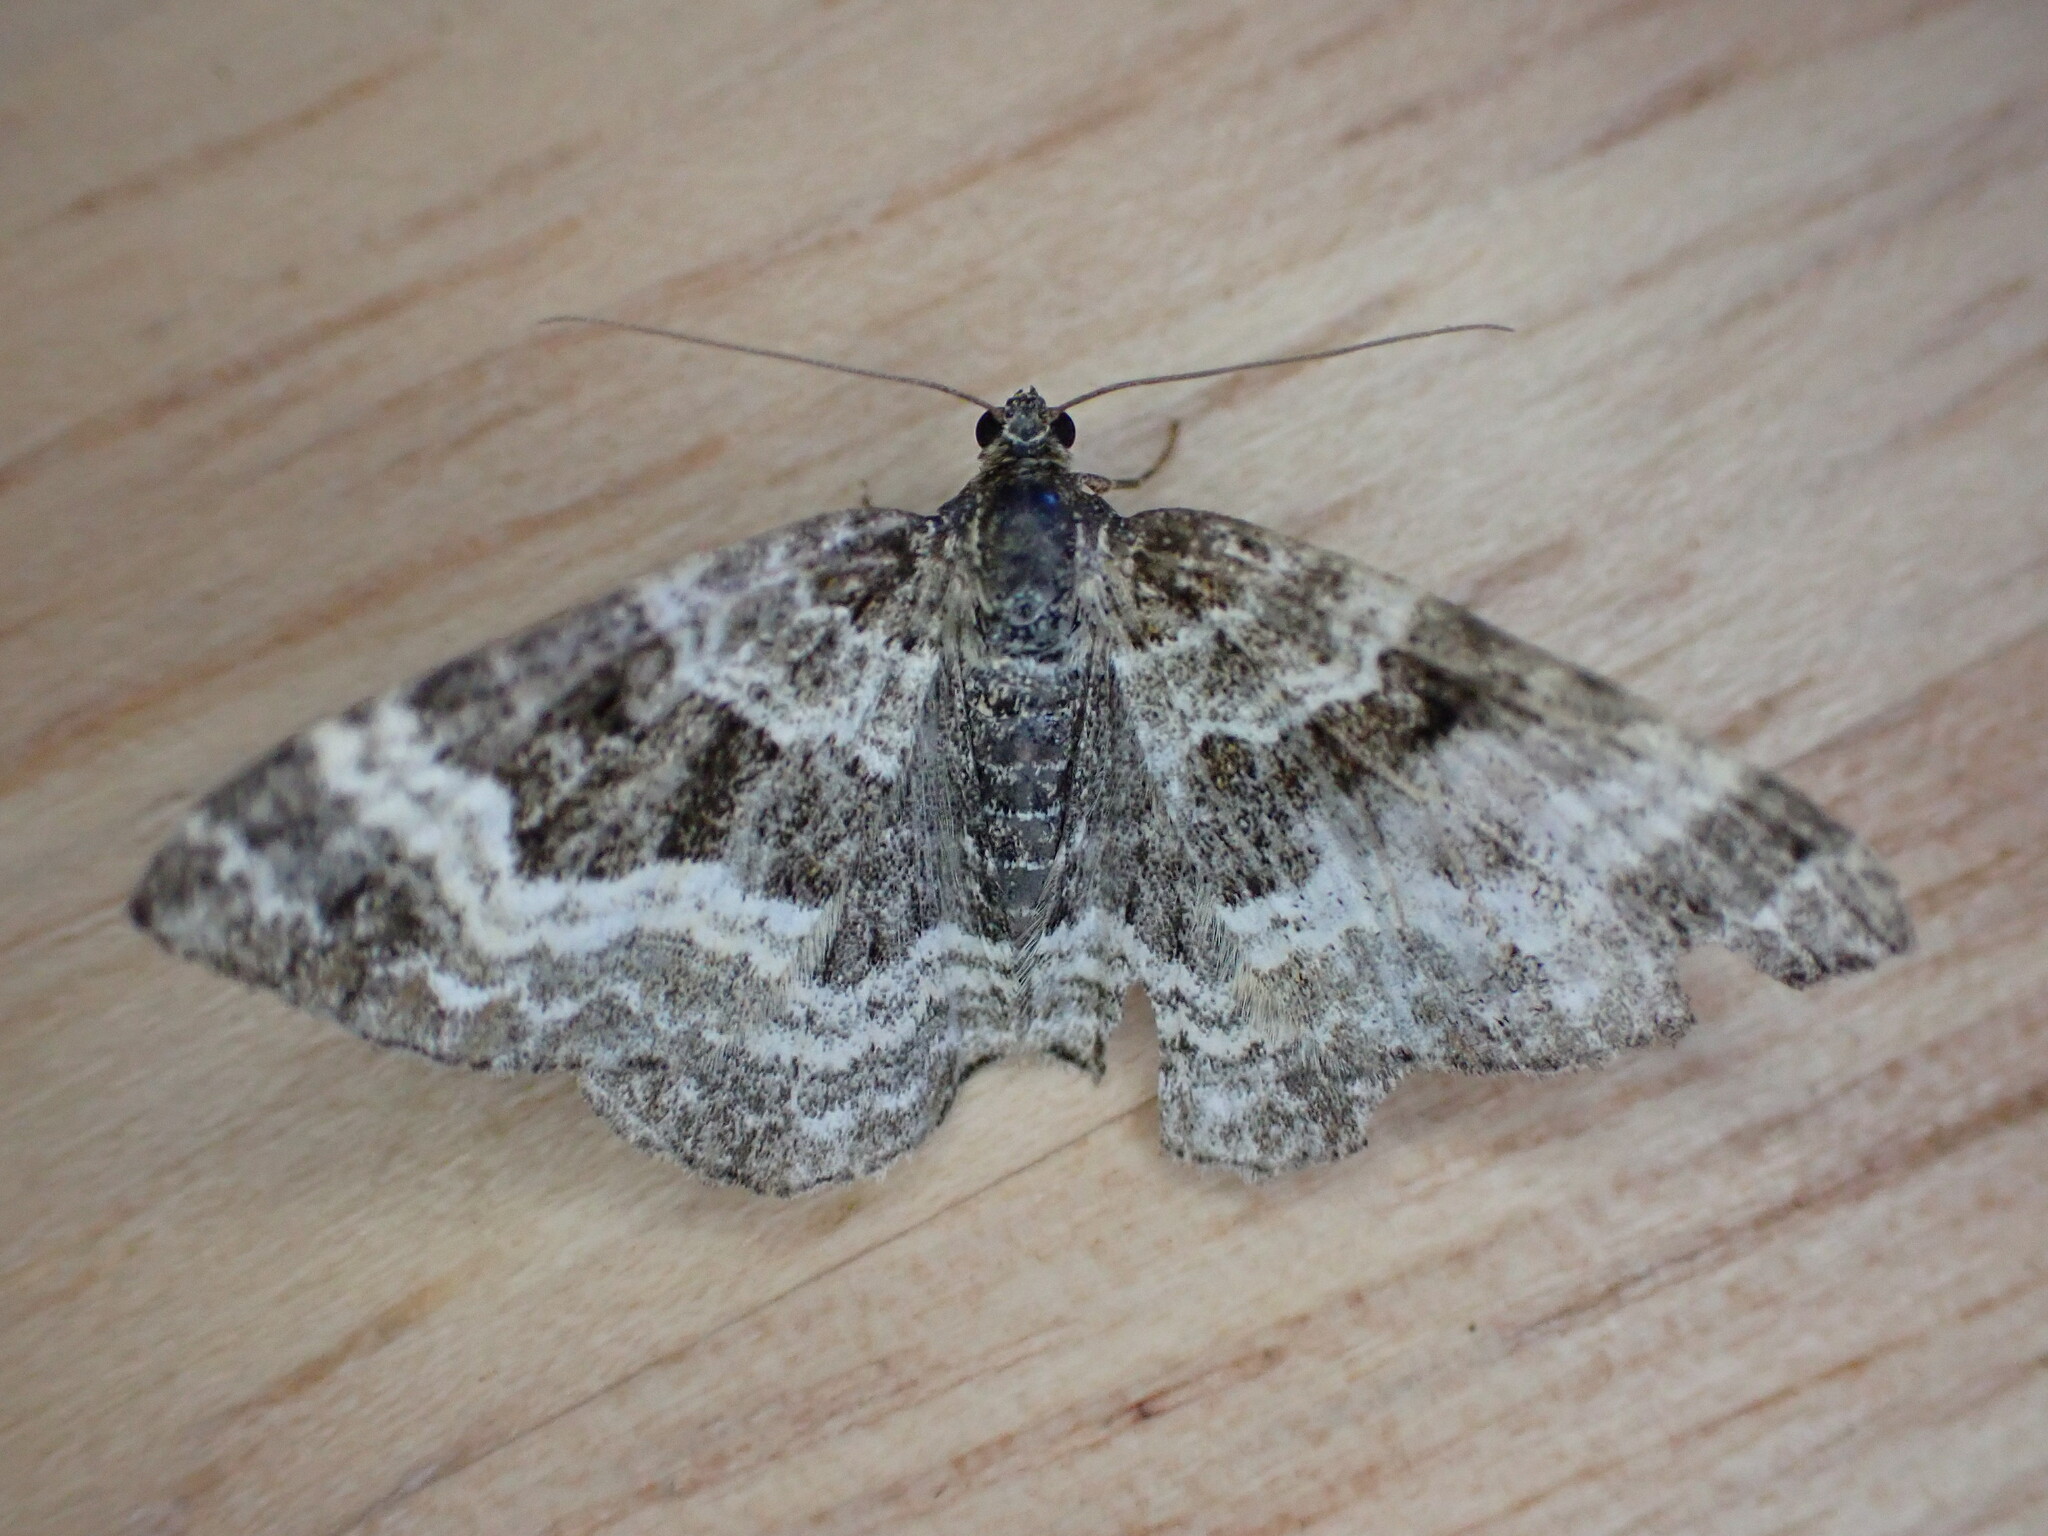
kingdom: Animalia
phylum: Arthropoda
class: Insecta
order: Lepidoptera
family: Geometridae
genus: Epirrhoe
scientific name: Epirrhoe alternata
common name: Common carpet
